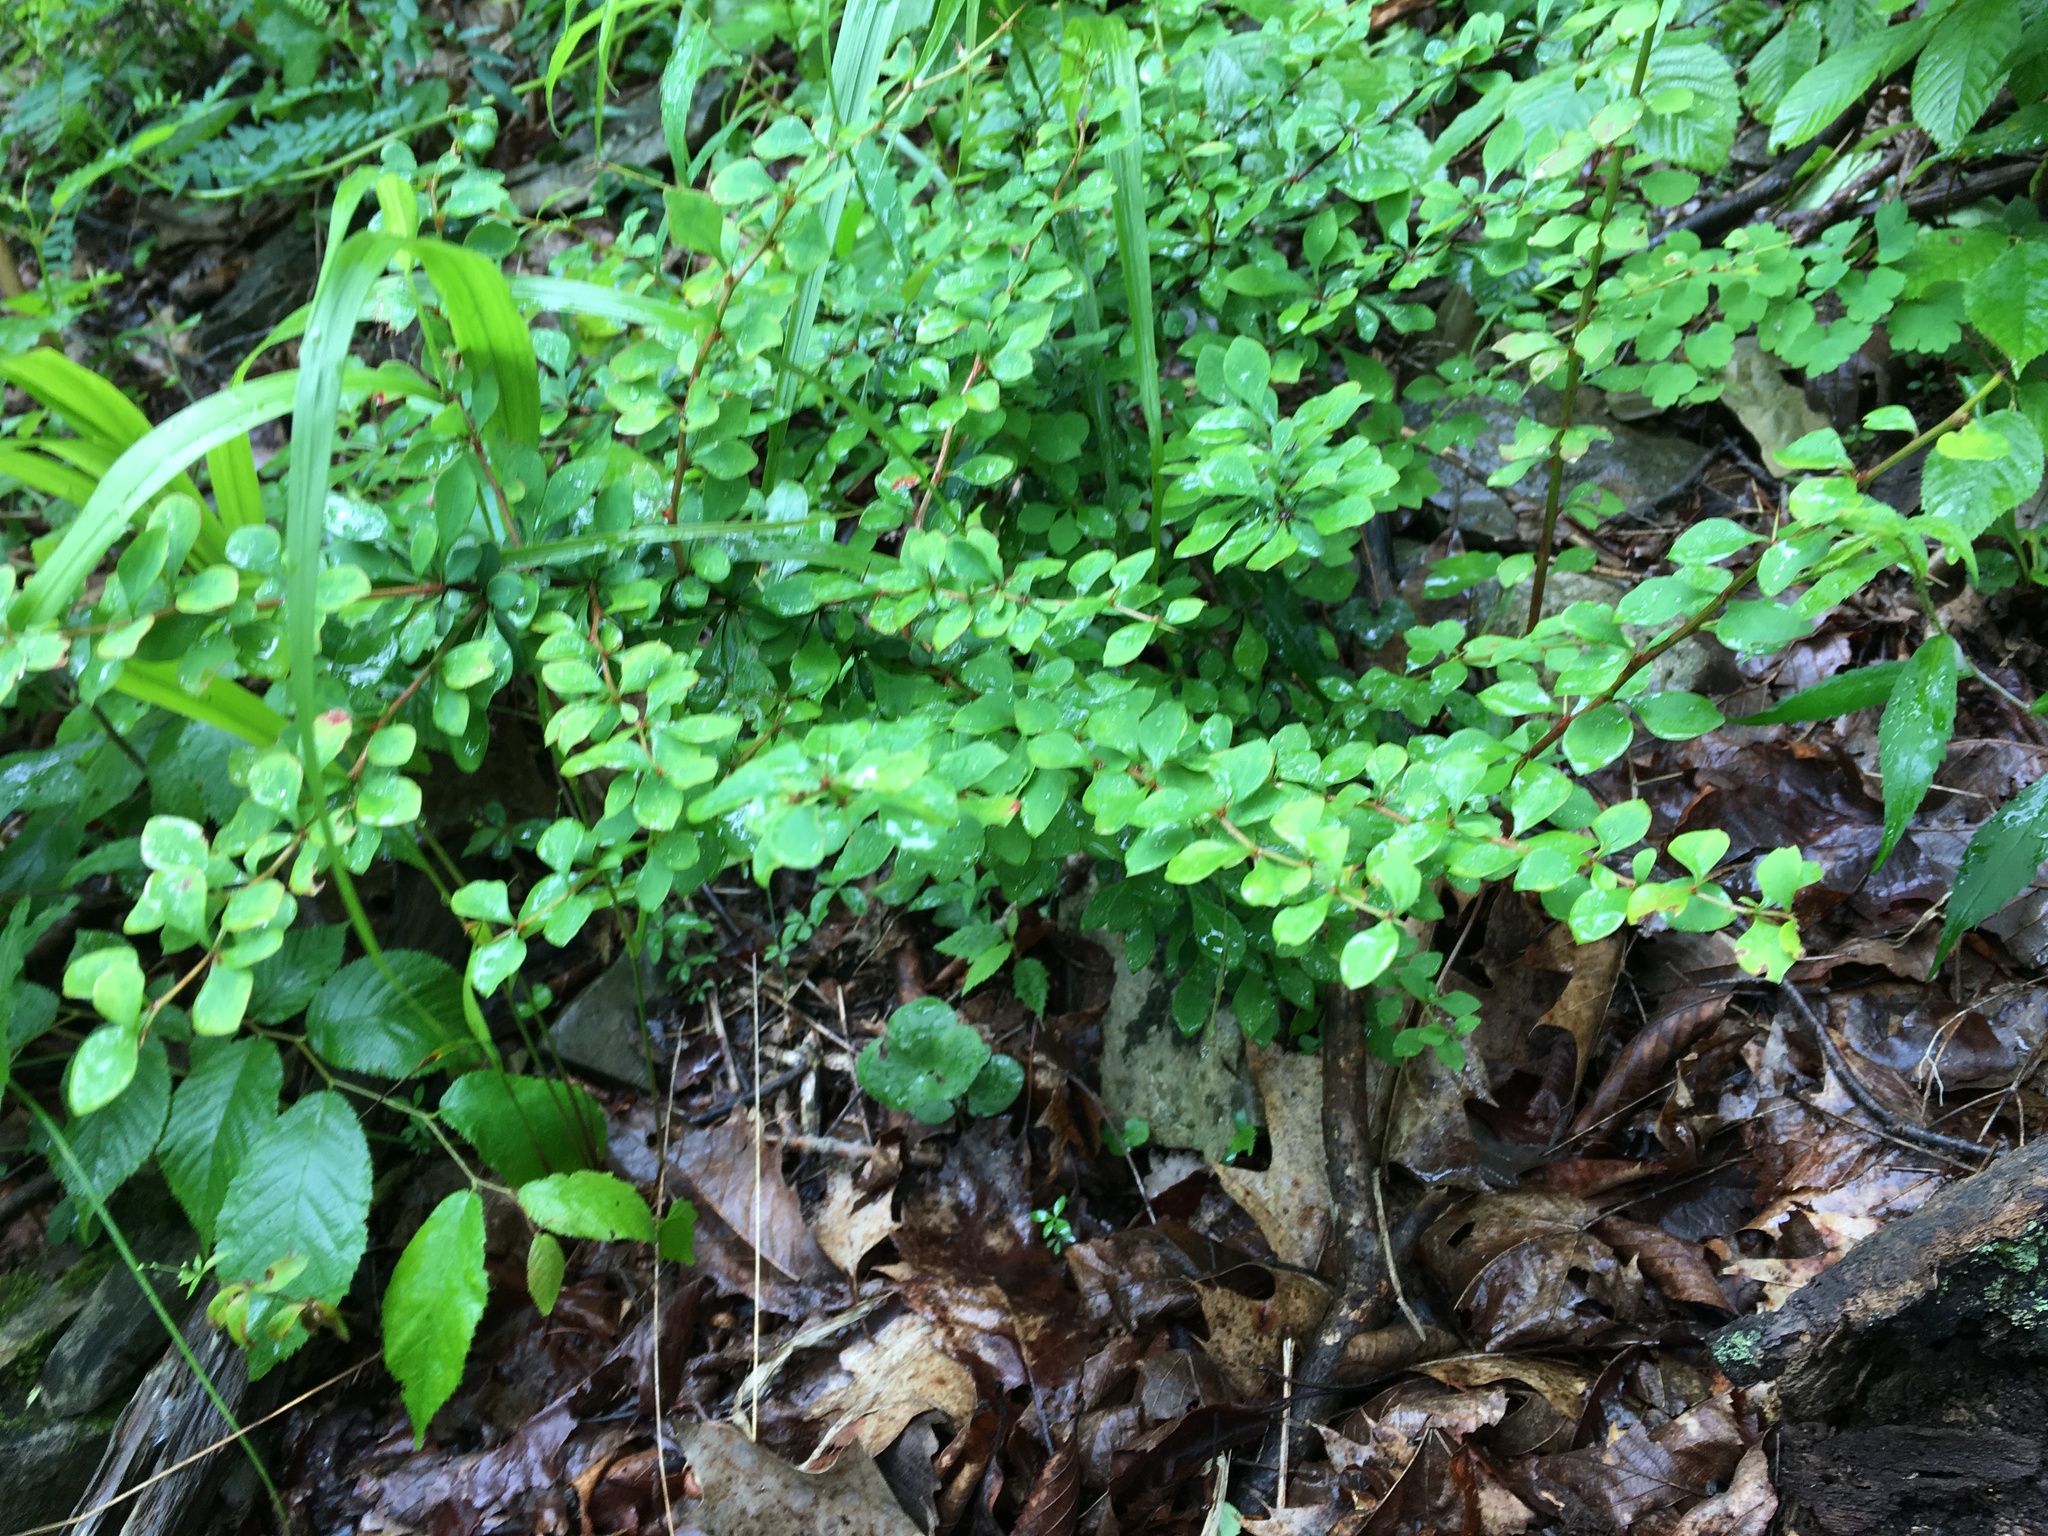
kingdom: Plantae
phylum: Tracheophyta
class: Magnoliopsida
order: Ranunculales
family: Berberidaceae
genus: Berberis
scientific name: Berberis thunbergii
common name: Japanese barberry
